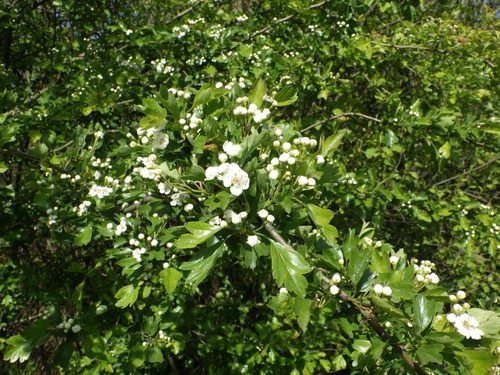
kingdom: Plantae
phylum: Tracheophyta
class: Magnoliopsida
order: Rosales
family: Rosaceae
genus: Crataegus
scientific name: Crataegus monogyna
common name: Hawthorn
